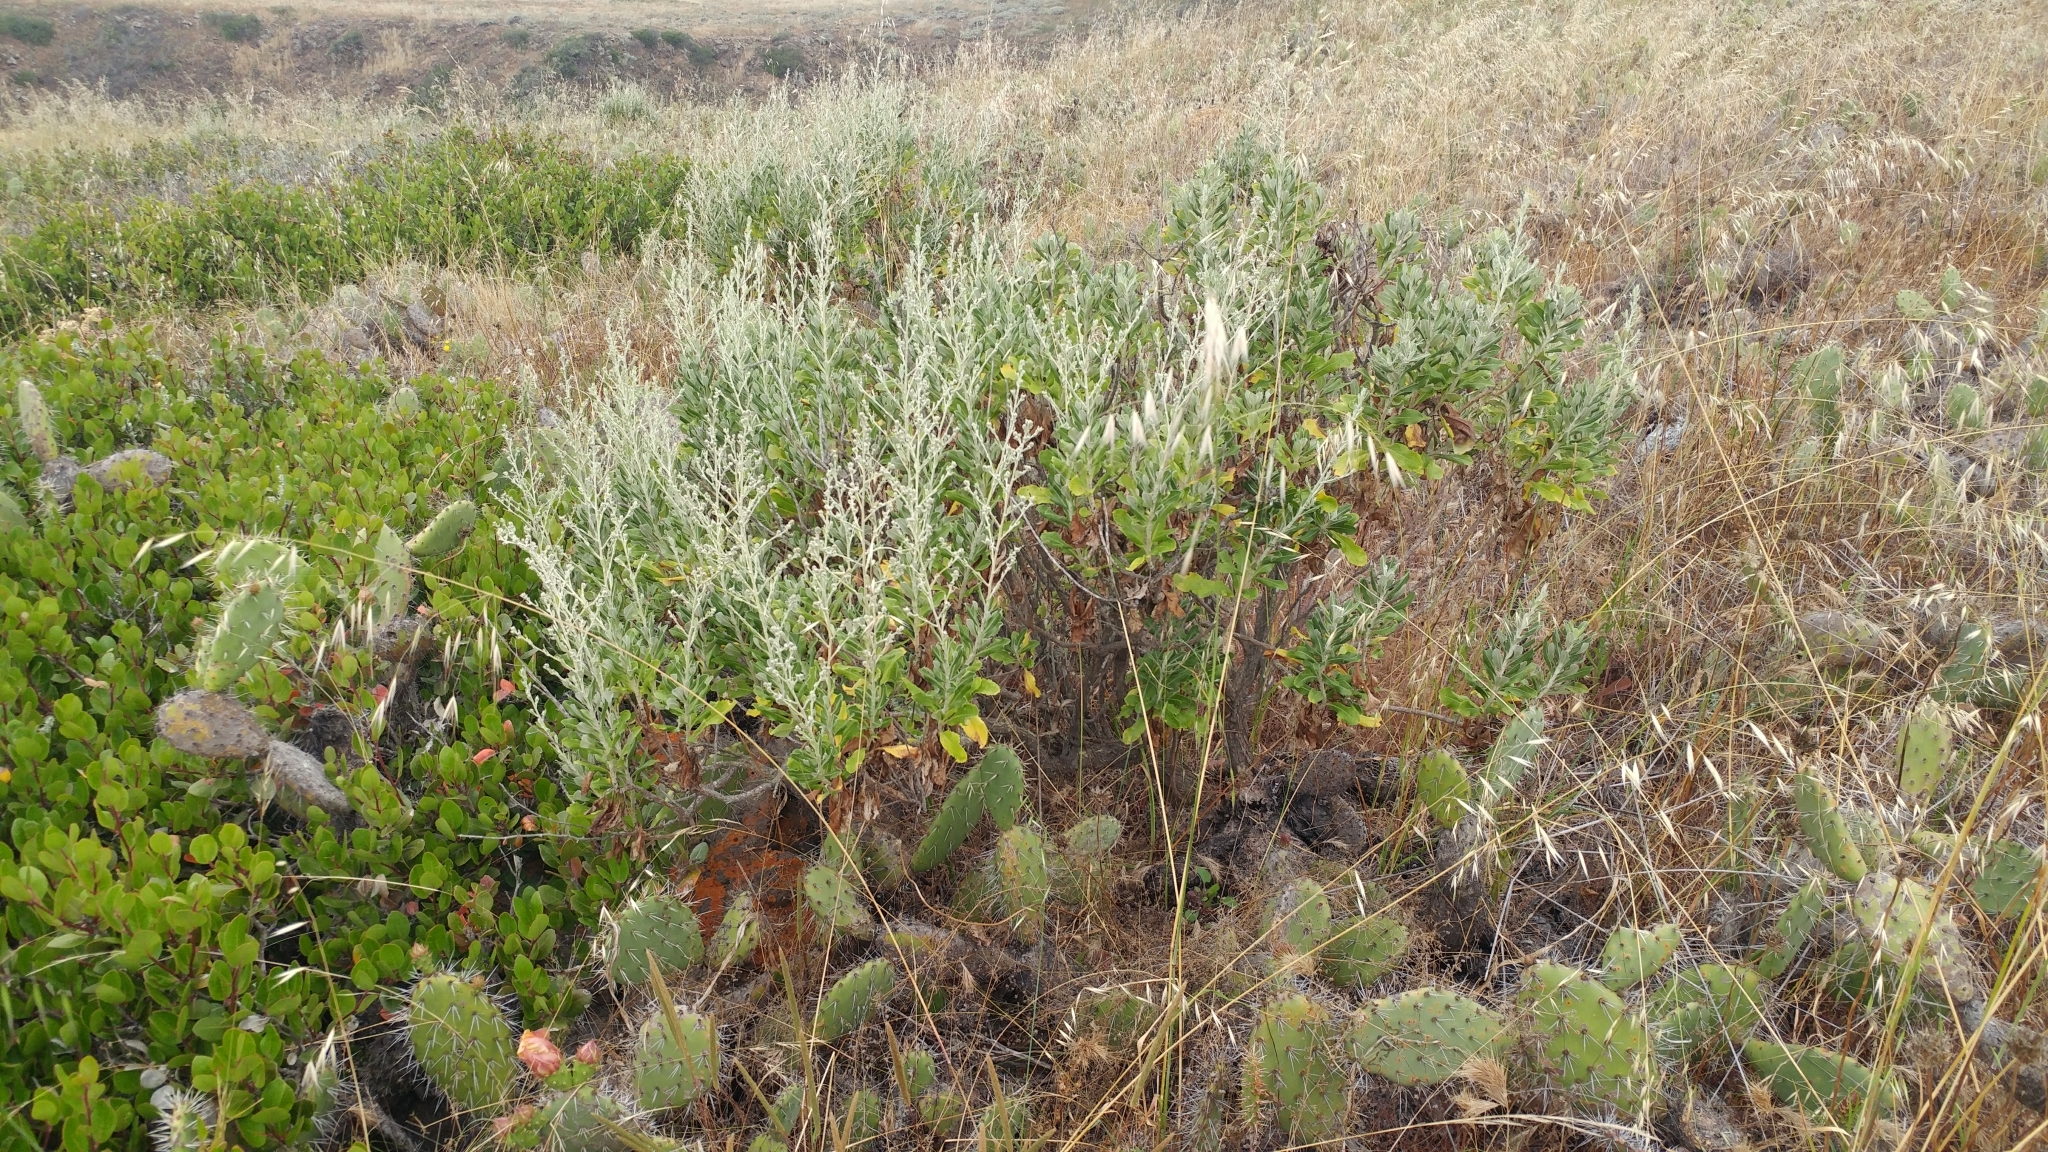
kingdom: Plantae
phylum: Tracheophyta
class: Magnoliopsida
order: Asterales
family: Asteraceae
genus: Hazardia
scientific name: Hazardia cana
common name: San clemente island bristleweed
